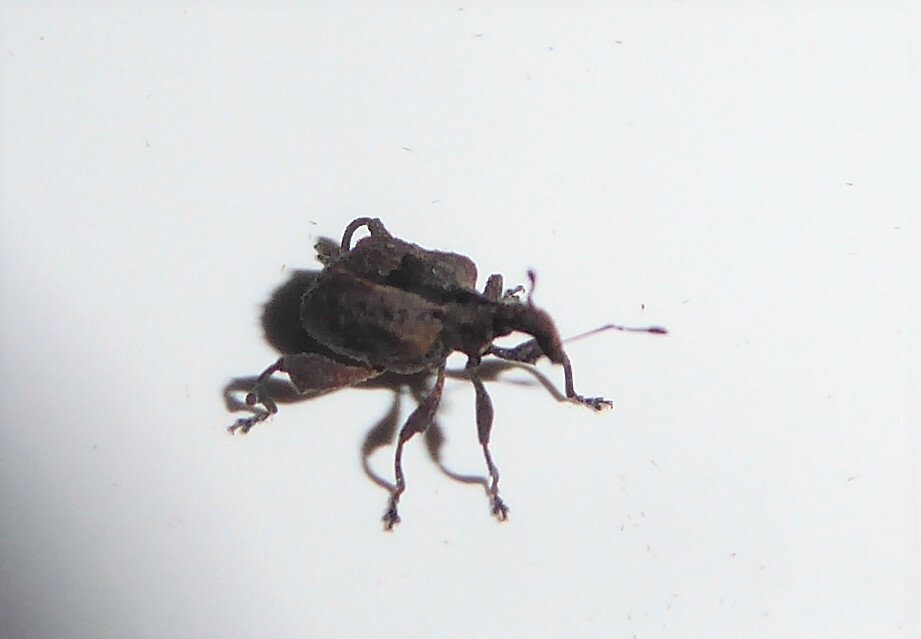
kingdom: Animalia
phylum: Arthropoda
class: Insecta
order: Coleoptera
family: Curculionidae
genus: Stephanorrhynchus
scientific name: Stephanorrhynchus crassus
